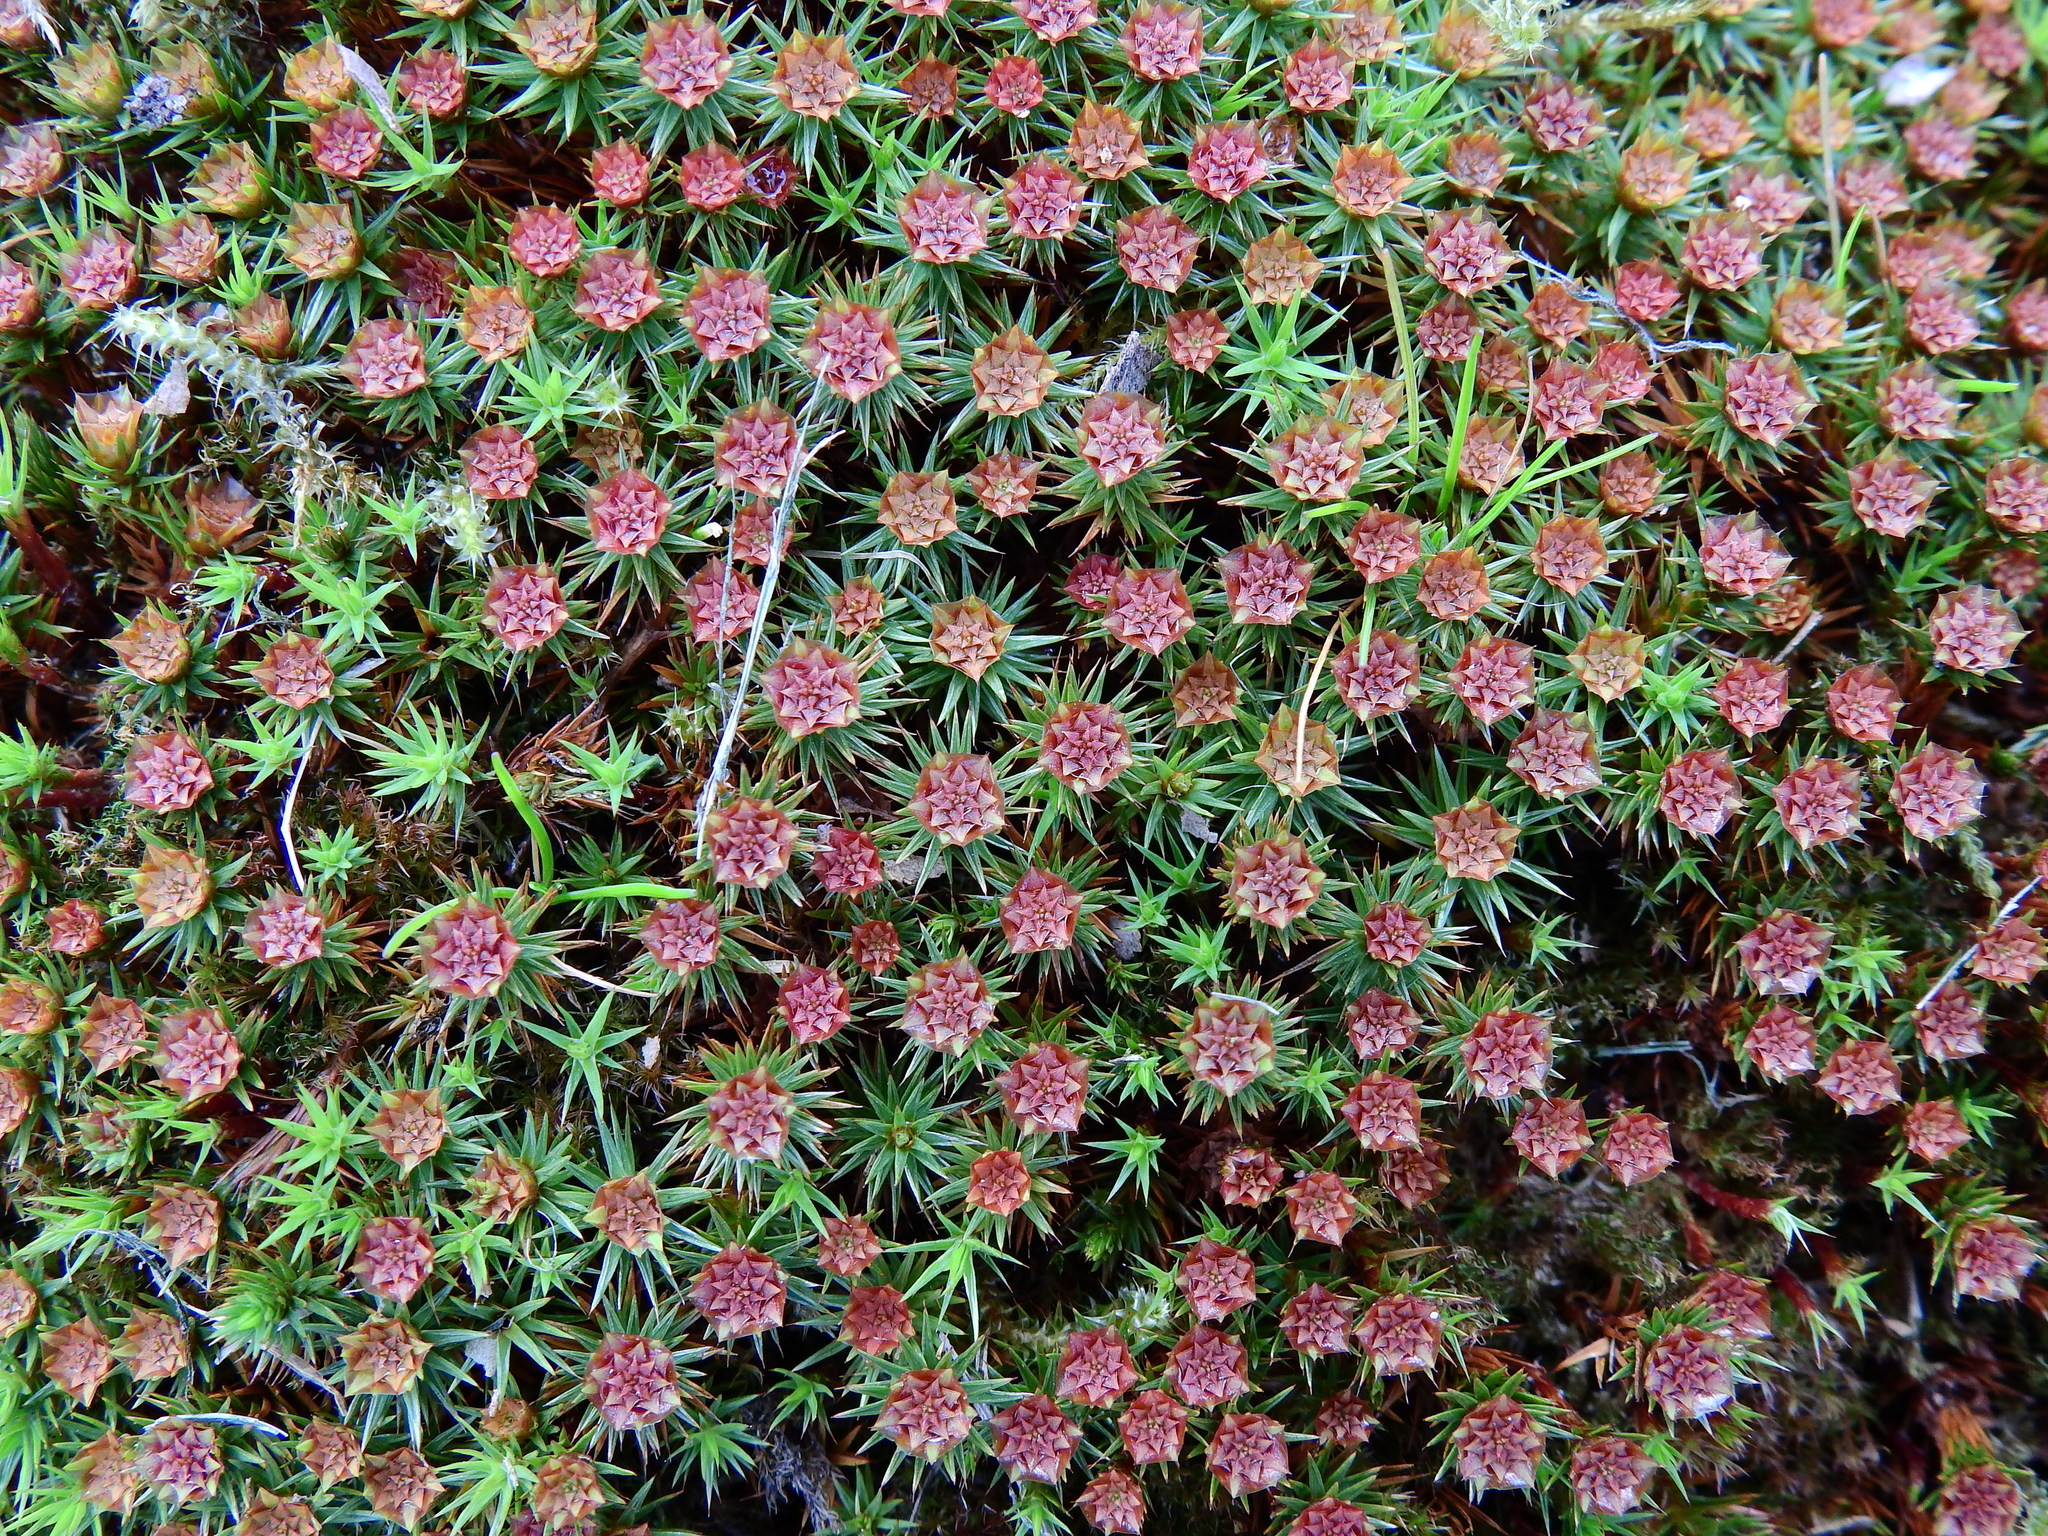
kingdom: Plantae
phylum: Bryophyta
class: Polytrichopsida
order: Polytrichales
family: Polytrichaceae
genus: Polytrichum
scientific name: Polytrichum juniperinum
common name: Juniper haircap moss
